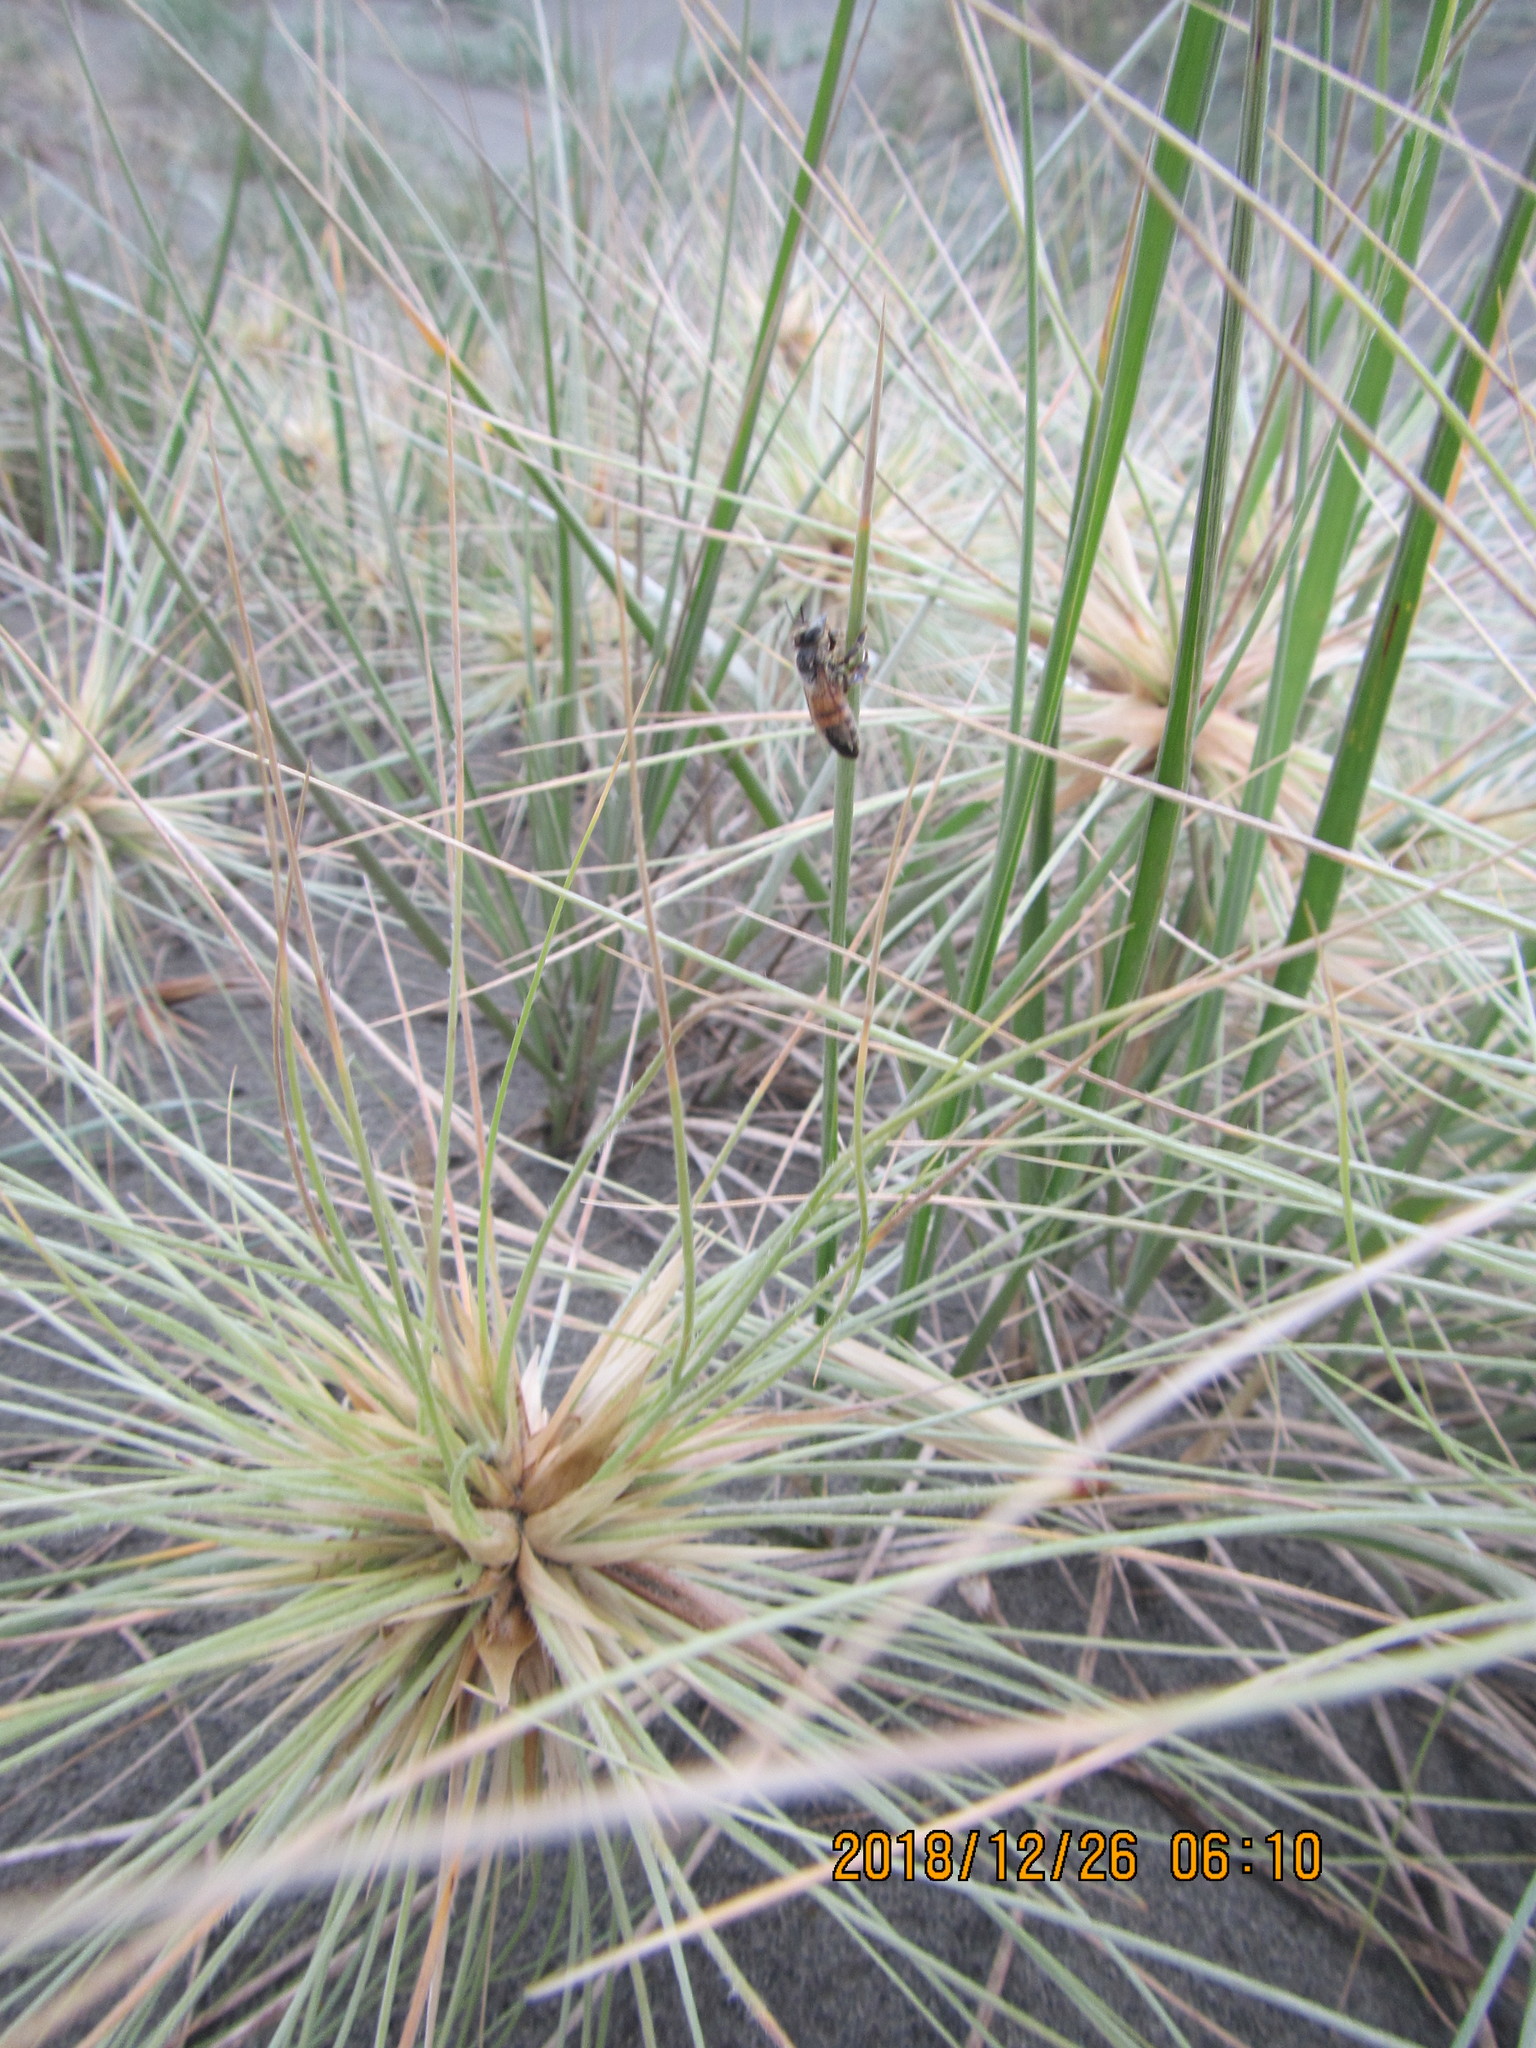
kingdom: Animalia
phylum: Arthropoda
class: Insecta
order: Hymenoptera
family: Apidae
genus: Apis
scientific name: Apis mellifera
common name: Honey bee
